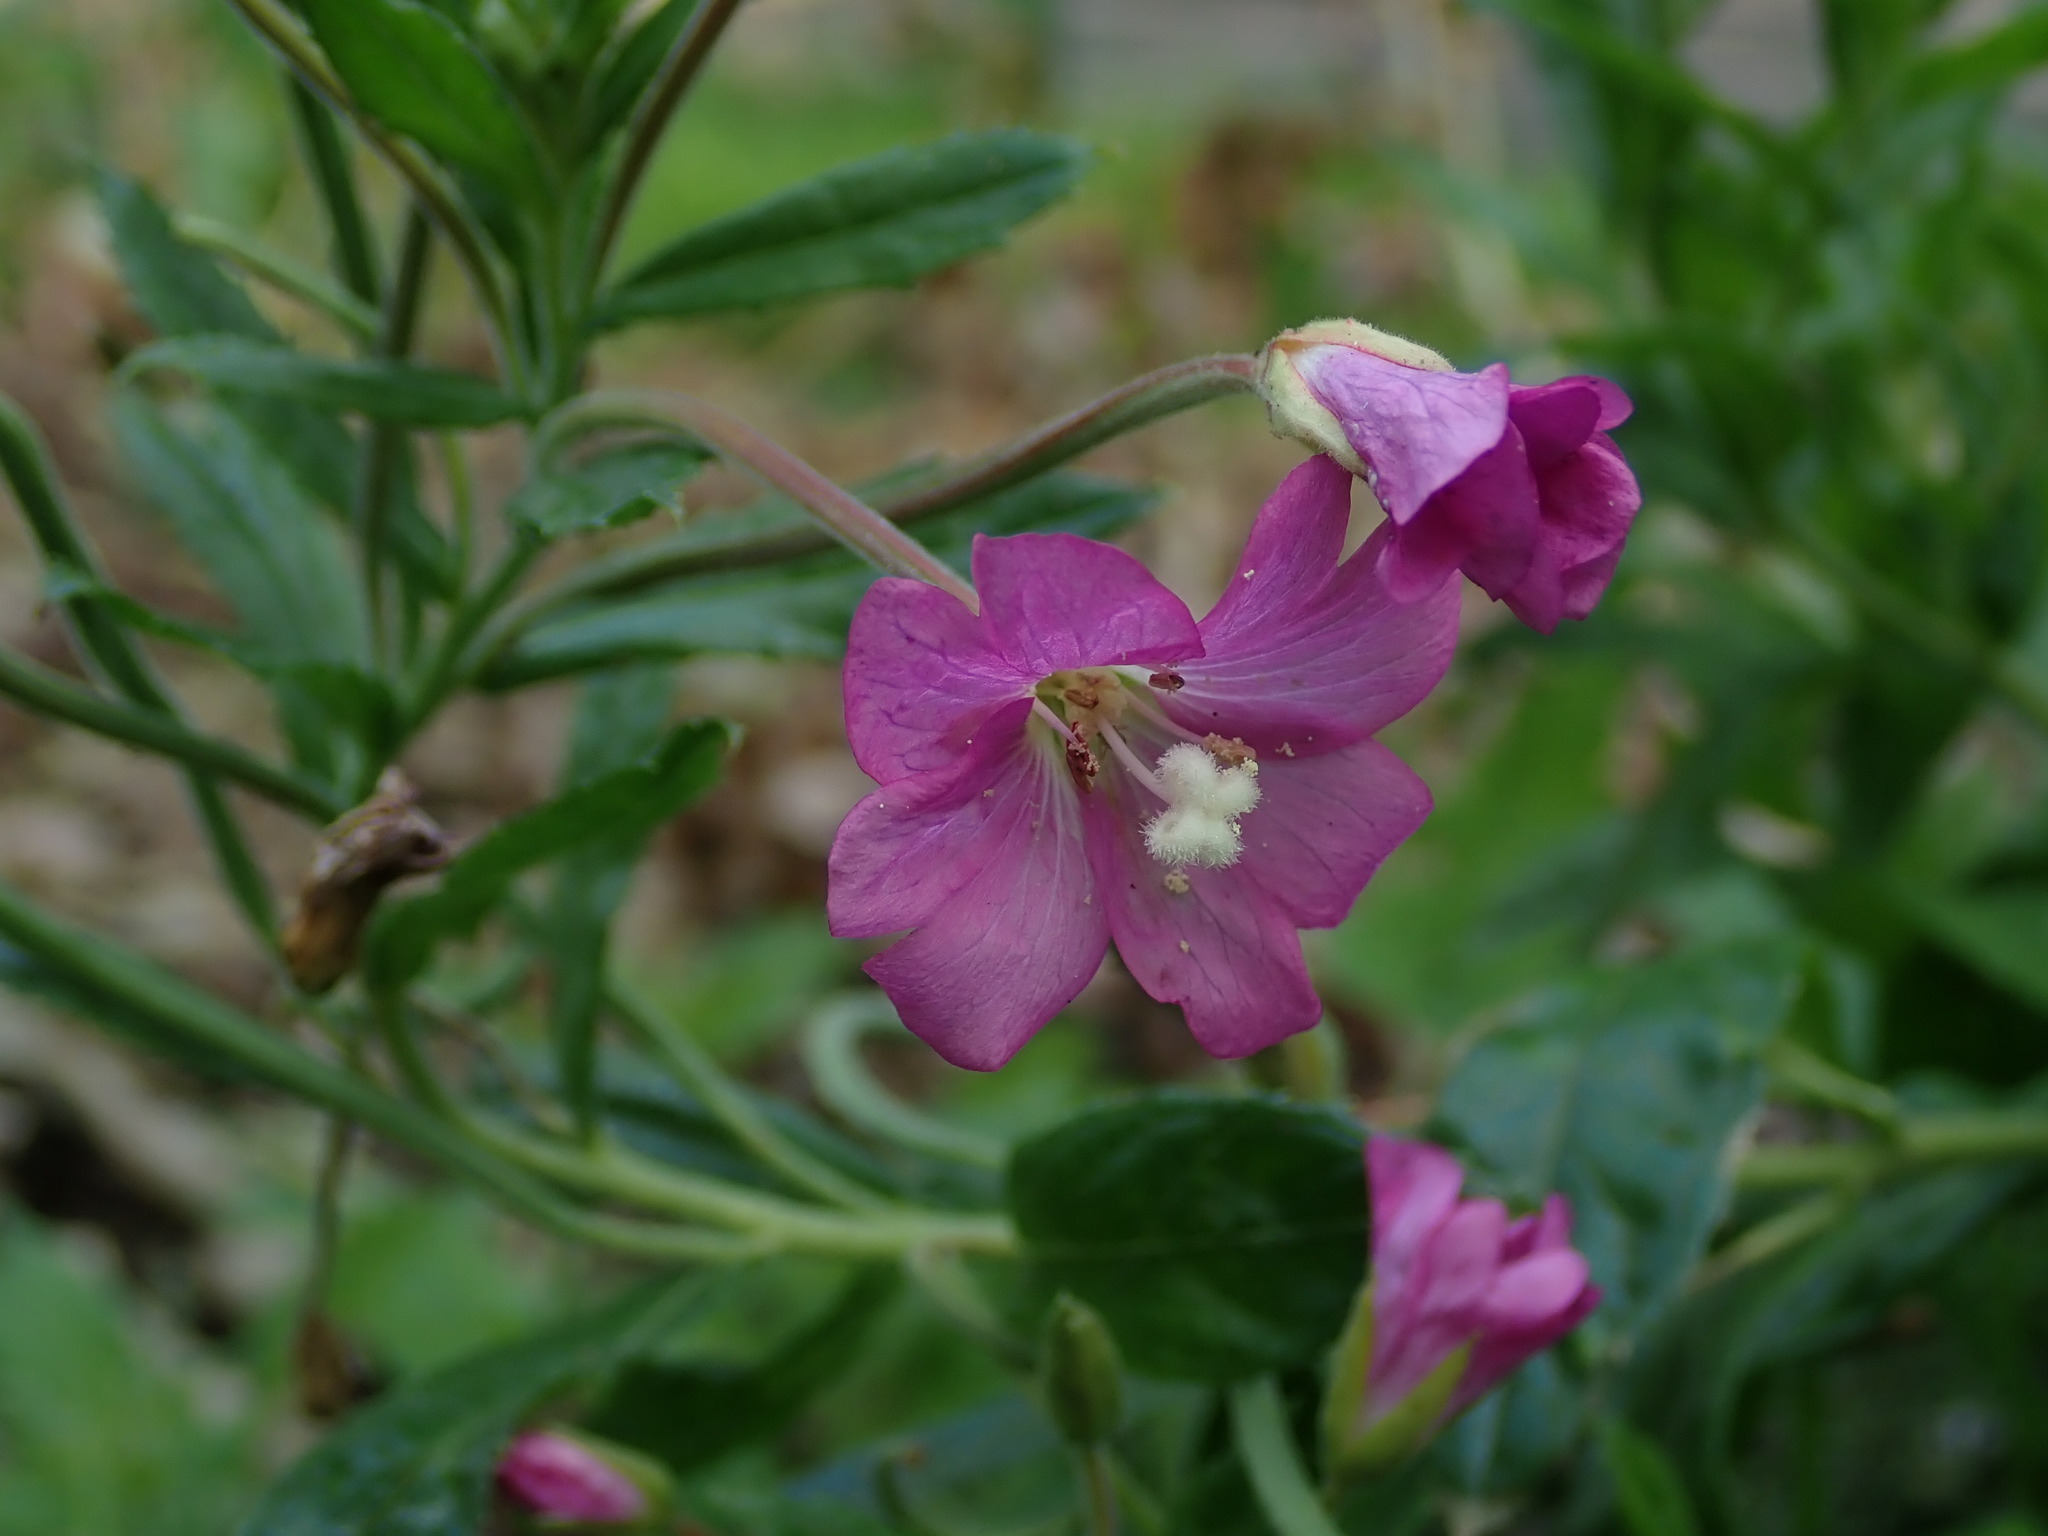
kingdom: Plantae
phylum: Tracheophyta
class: Magnoliopsida
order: Myrtales
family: Onagraceae
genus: Epilobium
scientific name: Epilobium hirsutum
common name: Great willowherb
